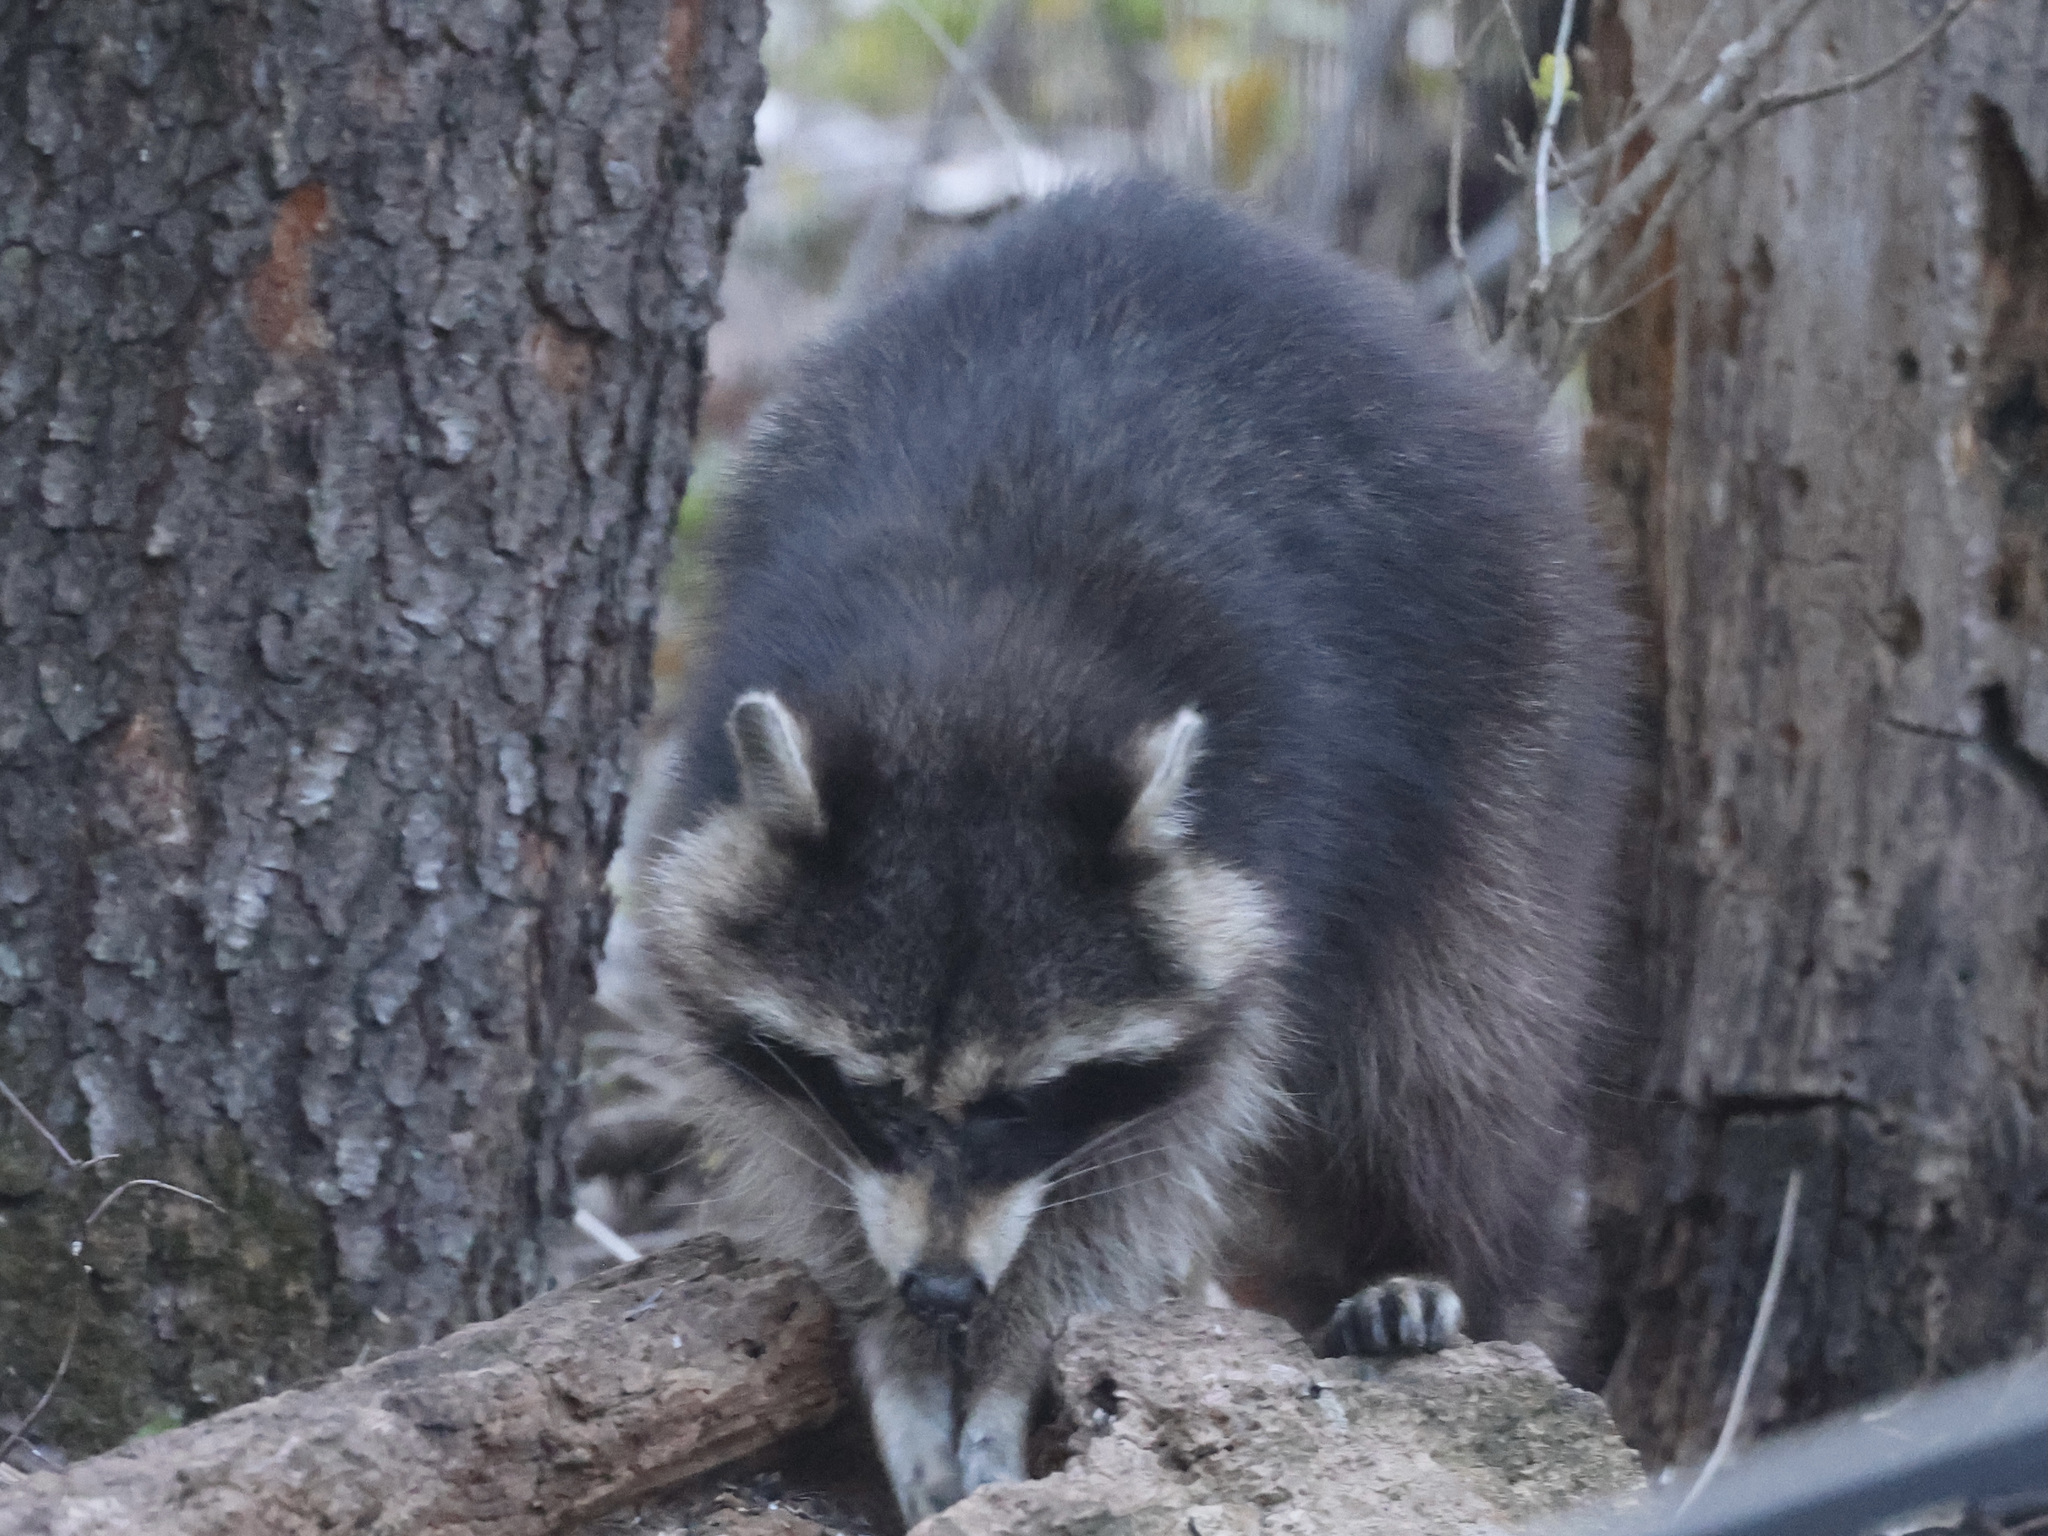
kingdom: Animalia
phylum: Chordata
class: Mammalia
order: Carnivora
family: Procyonidae
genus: Procyon
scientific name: Procyon lotor
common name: Raccoon
